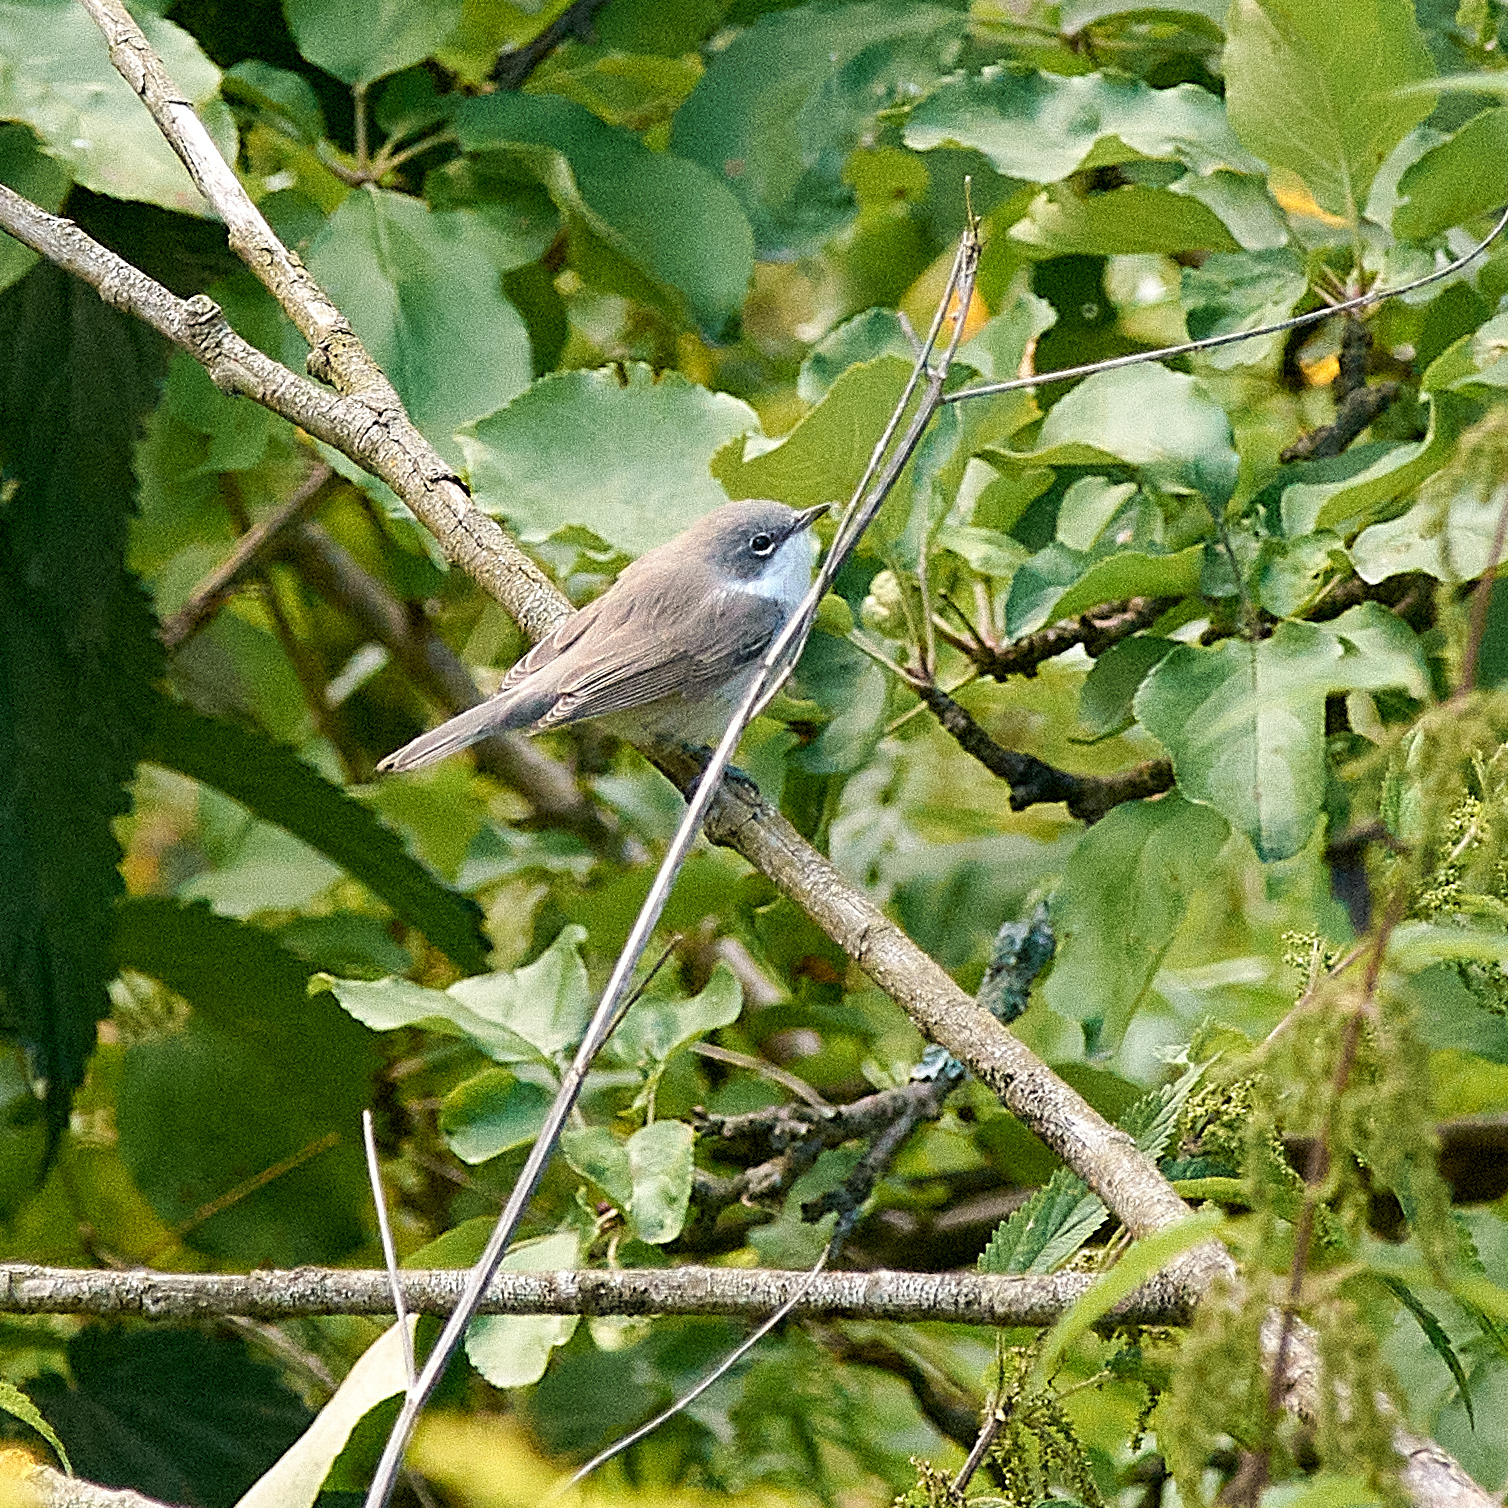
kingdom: Animalia
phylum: Chordata
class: Aves
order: Passeriformes
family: Sylviidae
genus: Sylvia
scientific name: Sylvia curruca
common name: Lesser whitethroat
